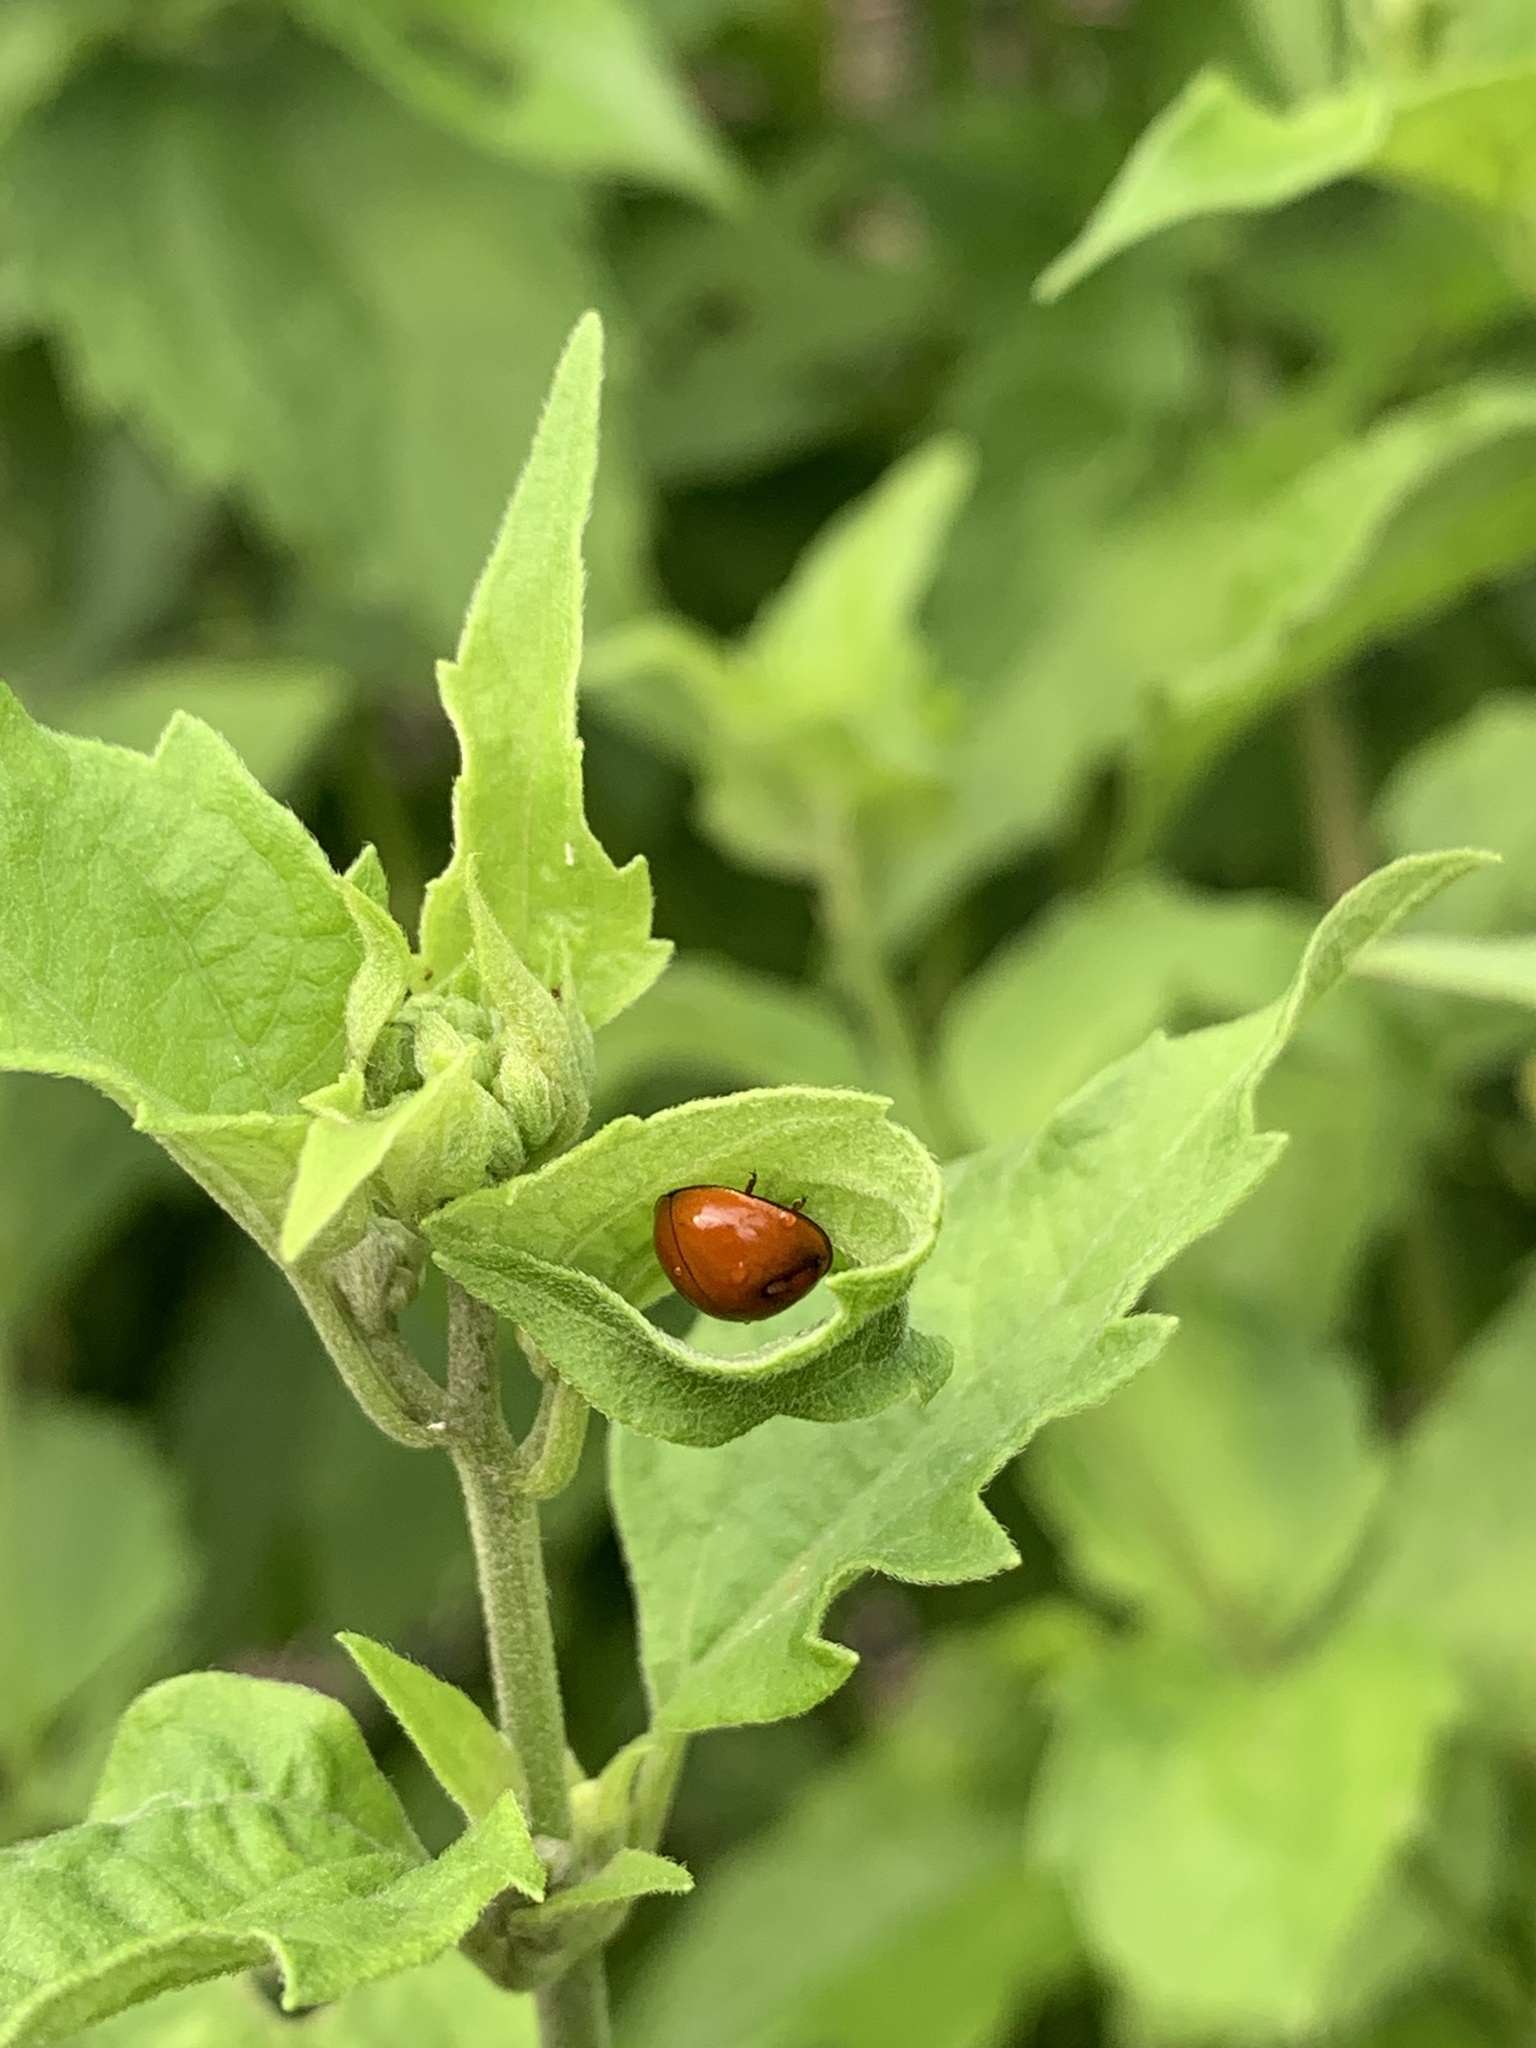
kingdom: Animalia
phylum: Arthropoda
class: Insecta
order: Coleoptera
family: Coccinellidae
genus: Cycloneda
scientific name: Cycloneda sanguinea
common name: Ladybird beetle
